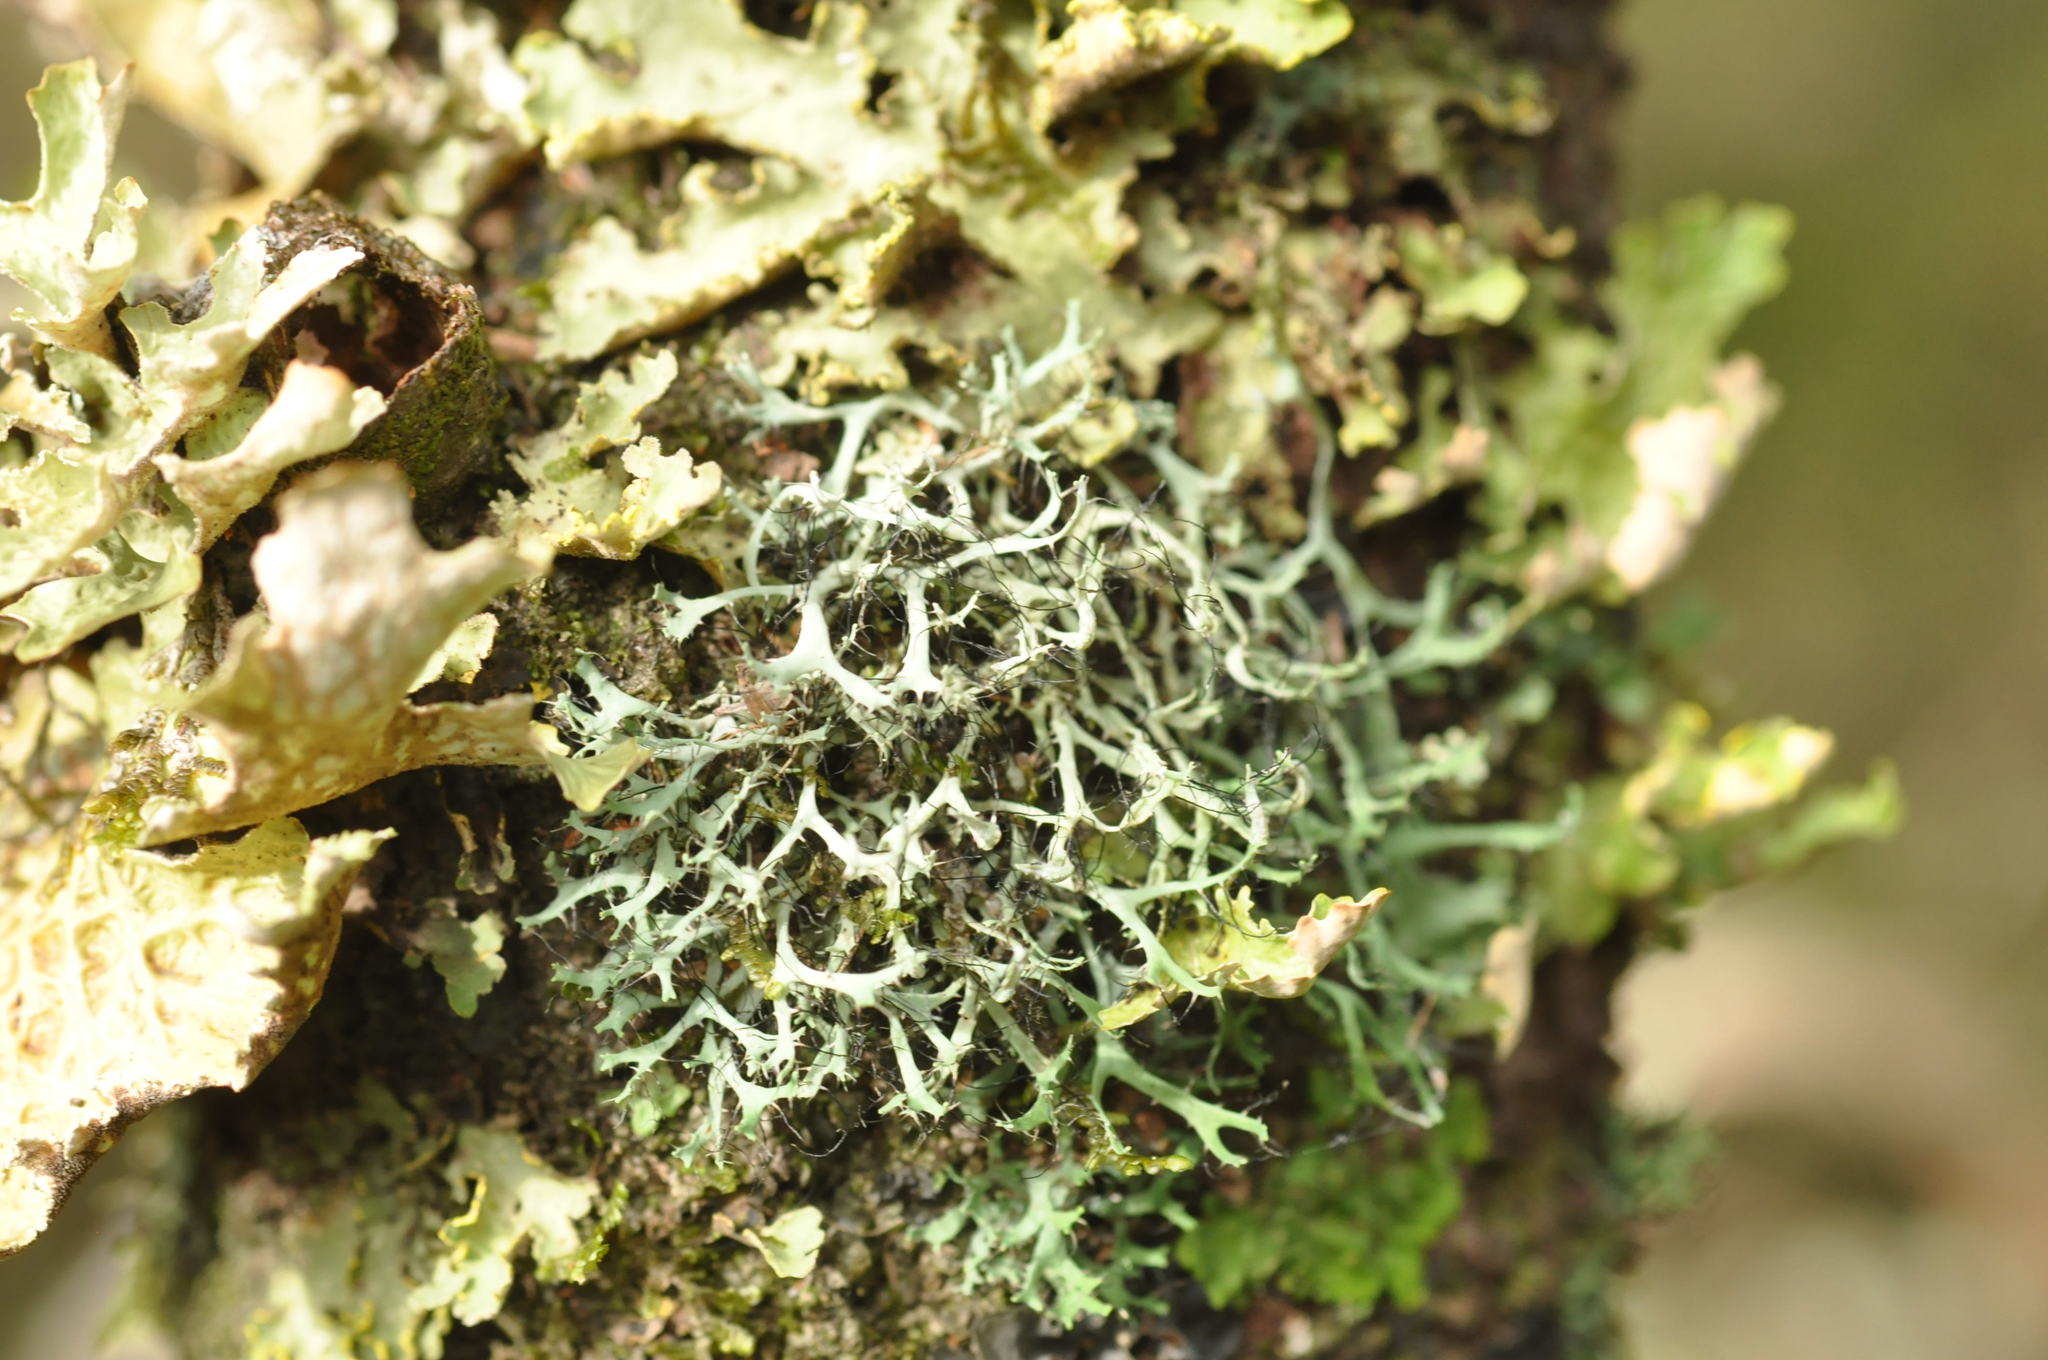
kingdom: Fungi
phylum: Ascomycota
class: Lecanoromycetes
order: Caliciales
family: Physciaceae
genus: Leucodermia
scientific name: Leucodermia leucomelos
